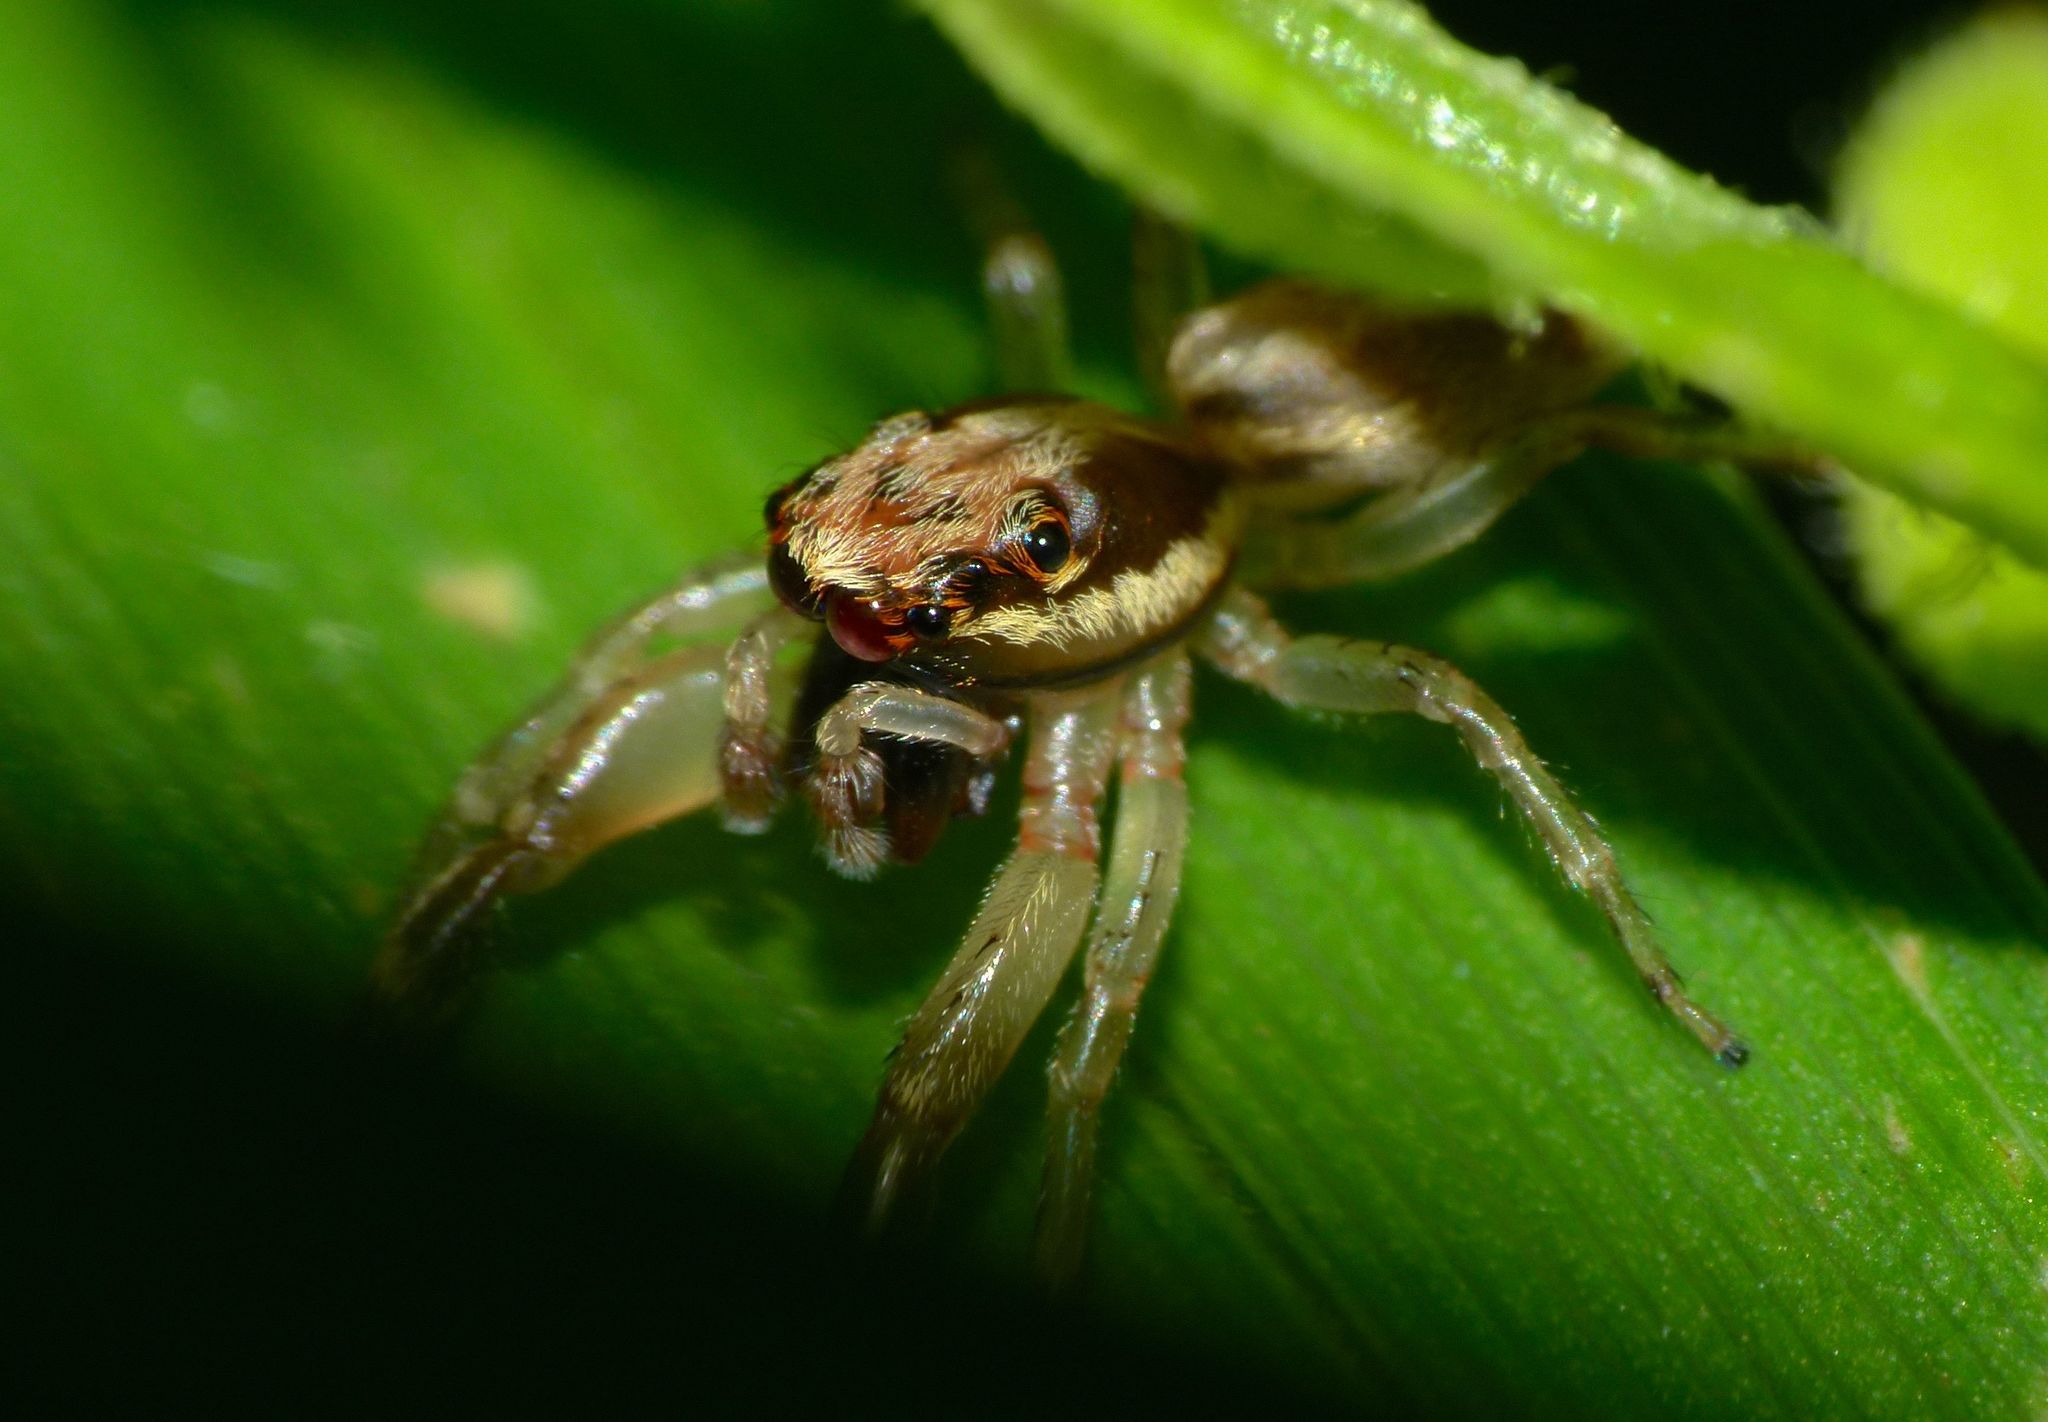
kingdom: Animalia
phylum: Arthropoda
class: Arachnida
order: Araneae
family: Salticidae
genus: Trite
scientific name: Trite mustilina
